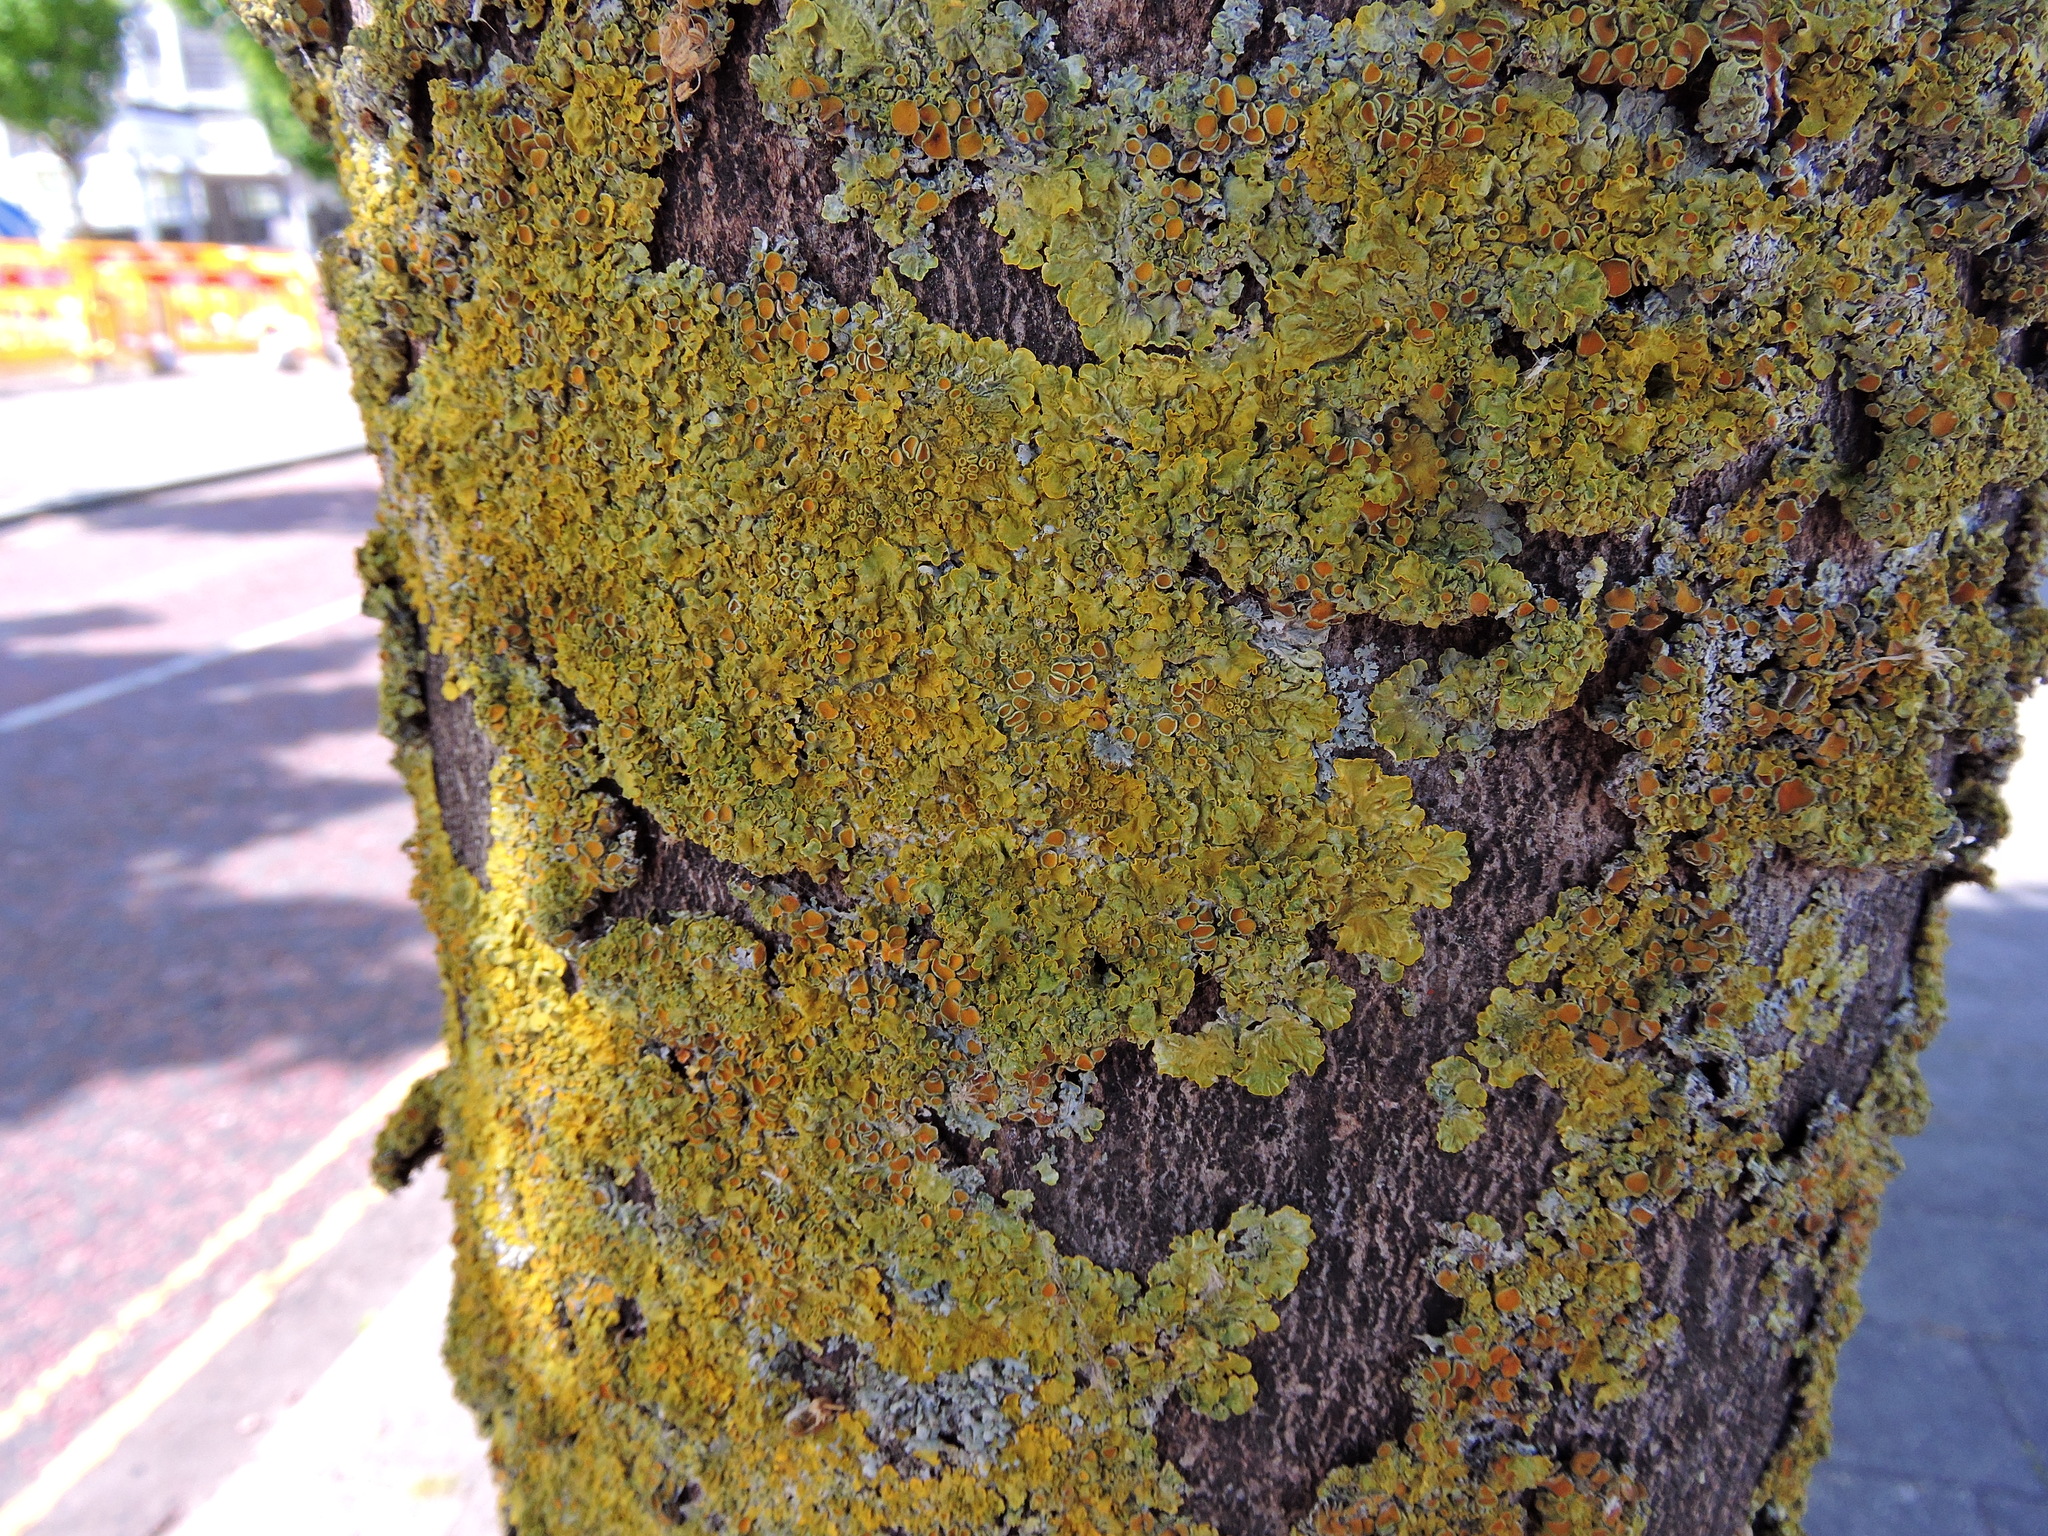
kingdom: Fungi
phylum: Ascomycota
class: Lecanoromycetes
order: Teloschistales
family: Teloschistaceae
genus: Xanthoria
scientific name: Xanthoria parietina
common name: Common orange lichen
